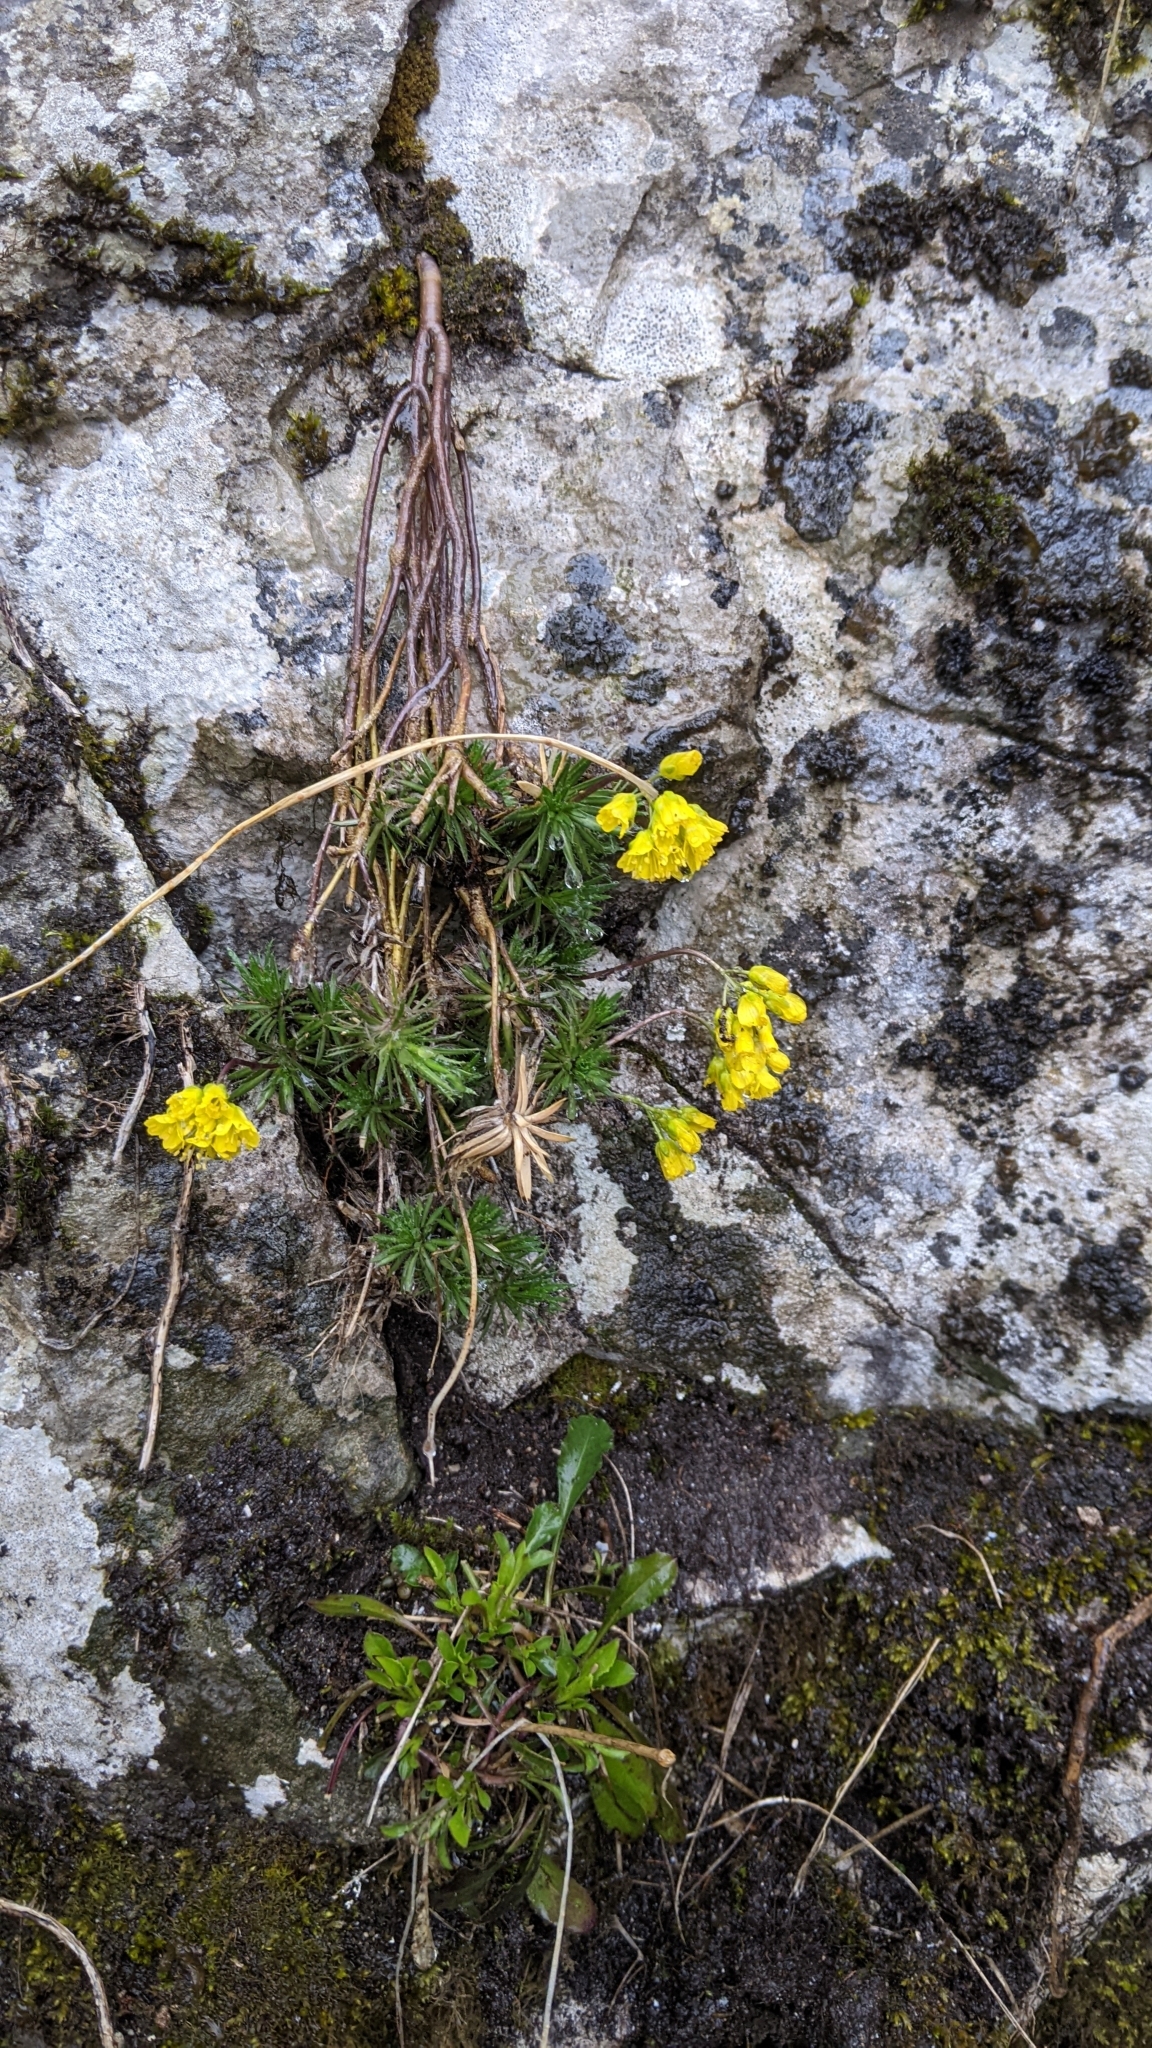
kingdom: Plantae
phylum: Tracheophyta
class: Magnoliopsida
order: Brassicales
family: Brassicaceae
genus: Draba
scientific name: Draba aizoides
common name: Yellow whitlowgrass
